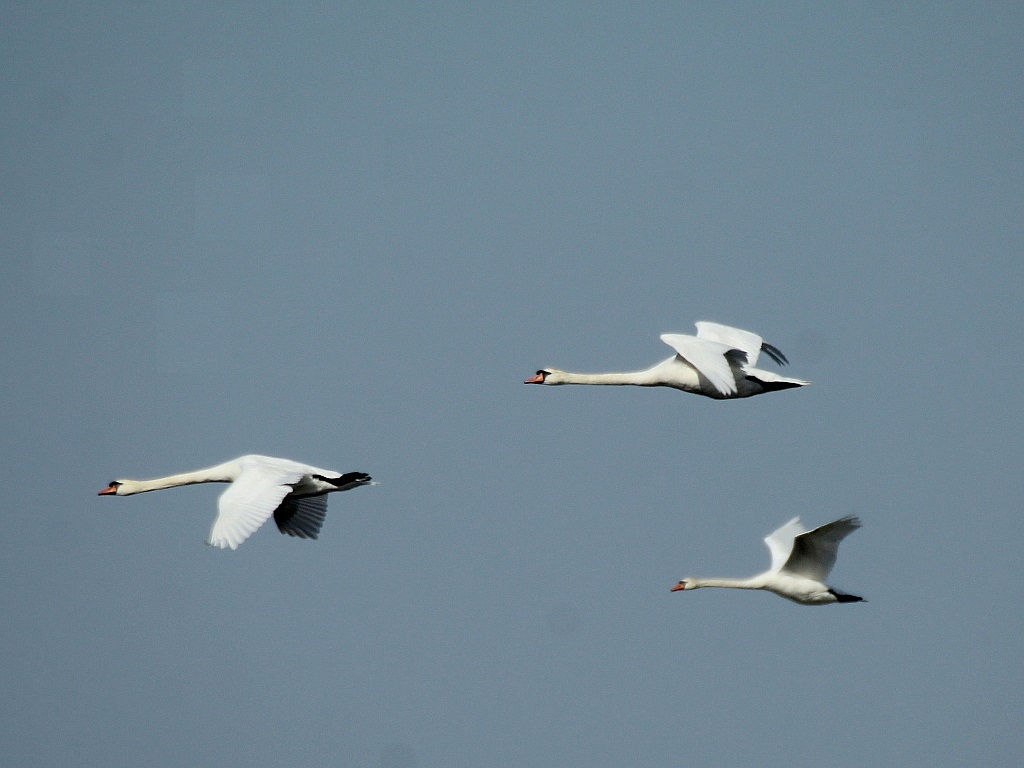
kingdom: Animalia
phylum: Chordata
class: Aves
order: Anseriformes
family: Anatidae
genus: Cygnus
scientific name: Cygnus olor
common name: Mute swan
